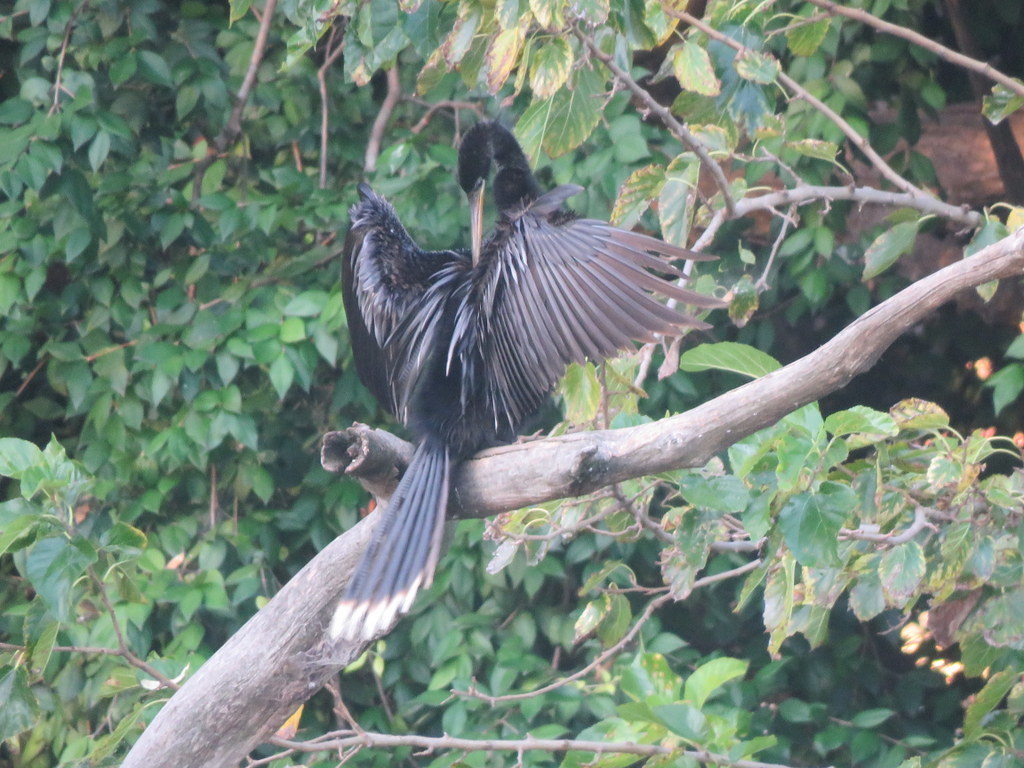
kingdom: Animalia
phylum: Chordata
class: Aves
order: Suliformes
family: Anhingidae
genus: Anhinga
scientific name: Anhinga anhinga
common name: Anhinga
